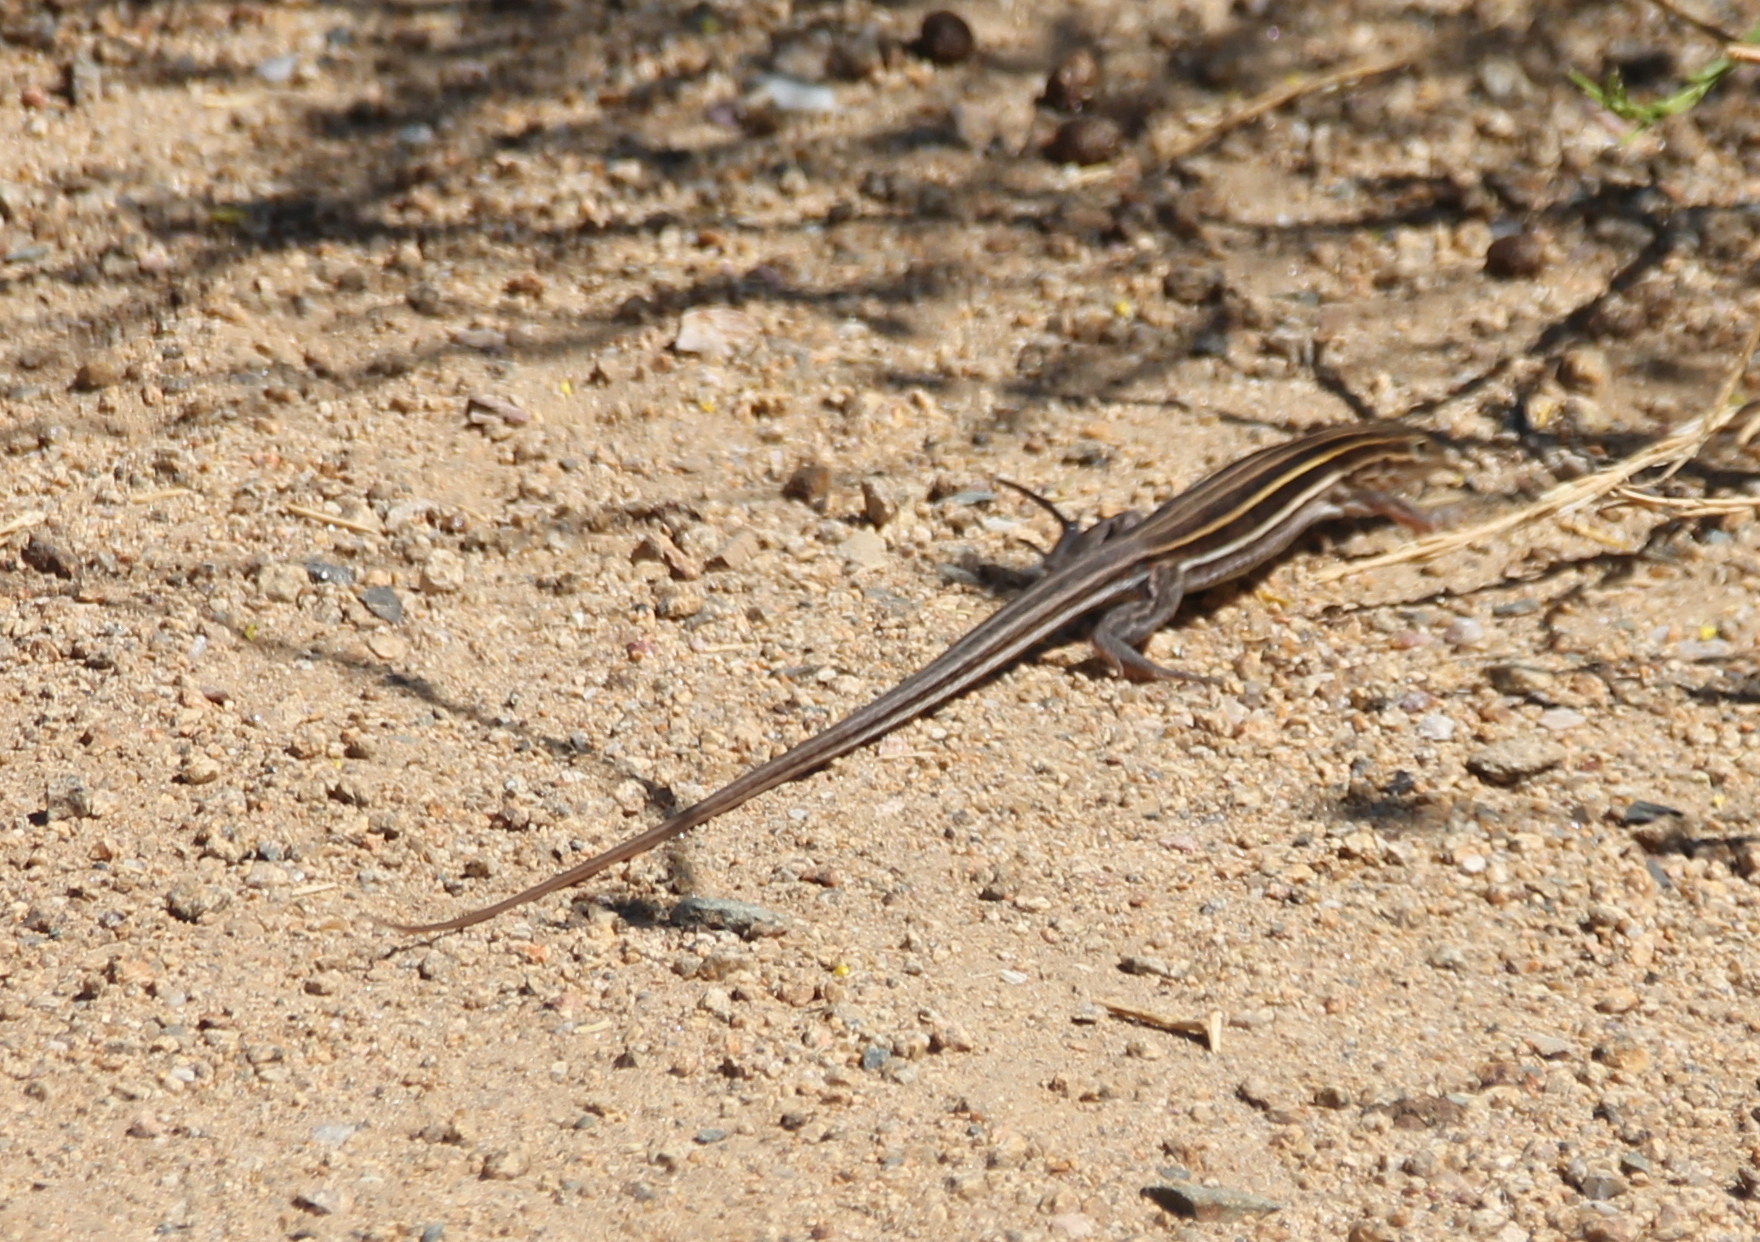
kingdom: Animalia
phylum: Chordata
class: Squamata
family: Teiidae
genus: Aspidoscelis
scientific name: Aspidoscelis hyperythrus
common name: Orange-throated race-runner
